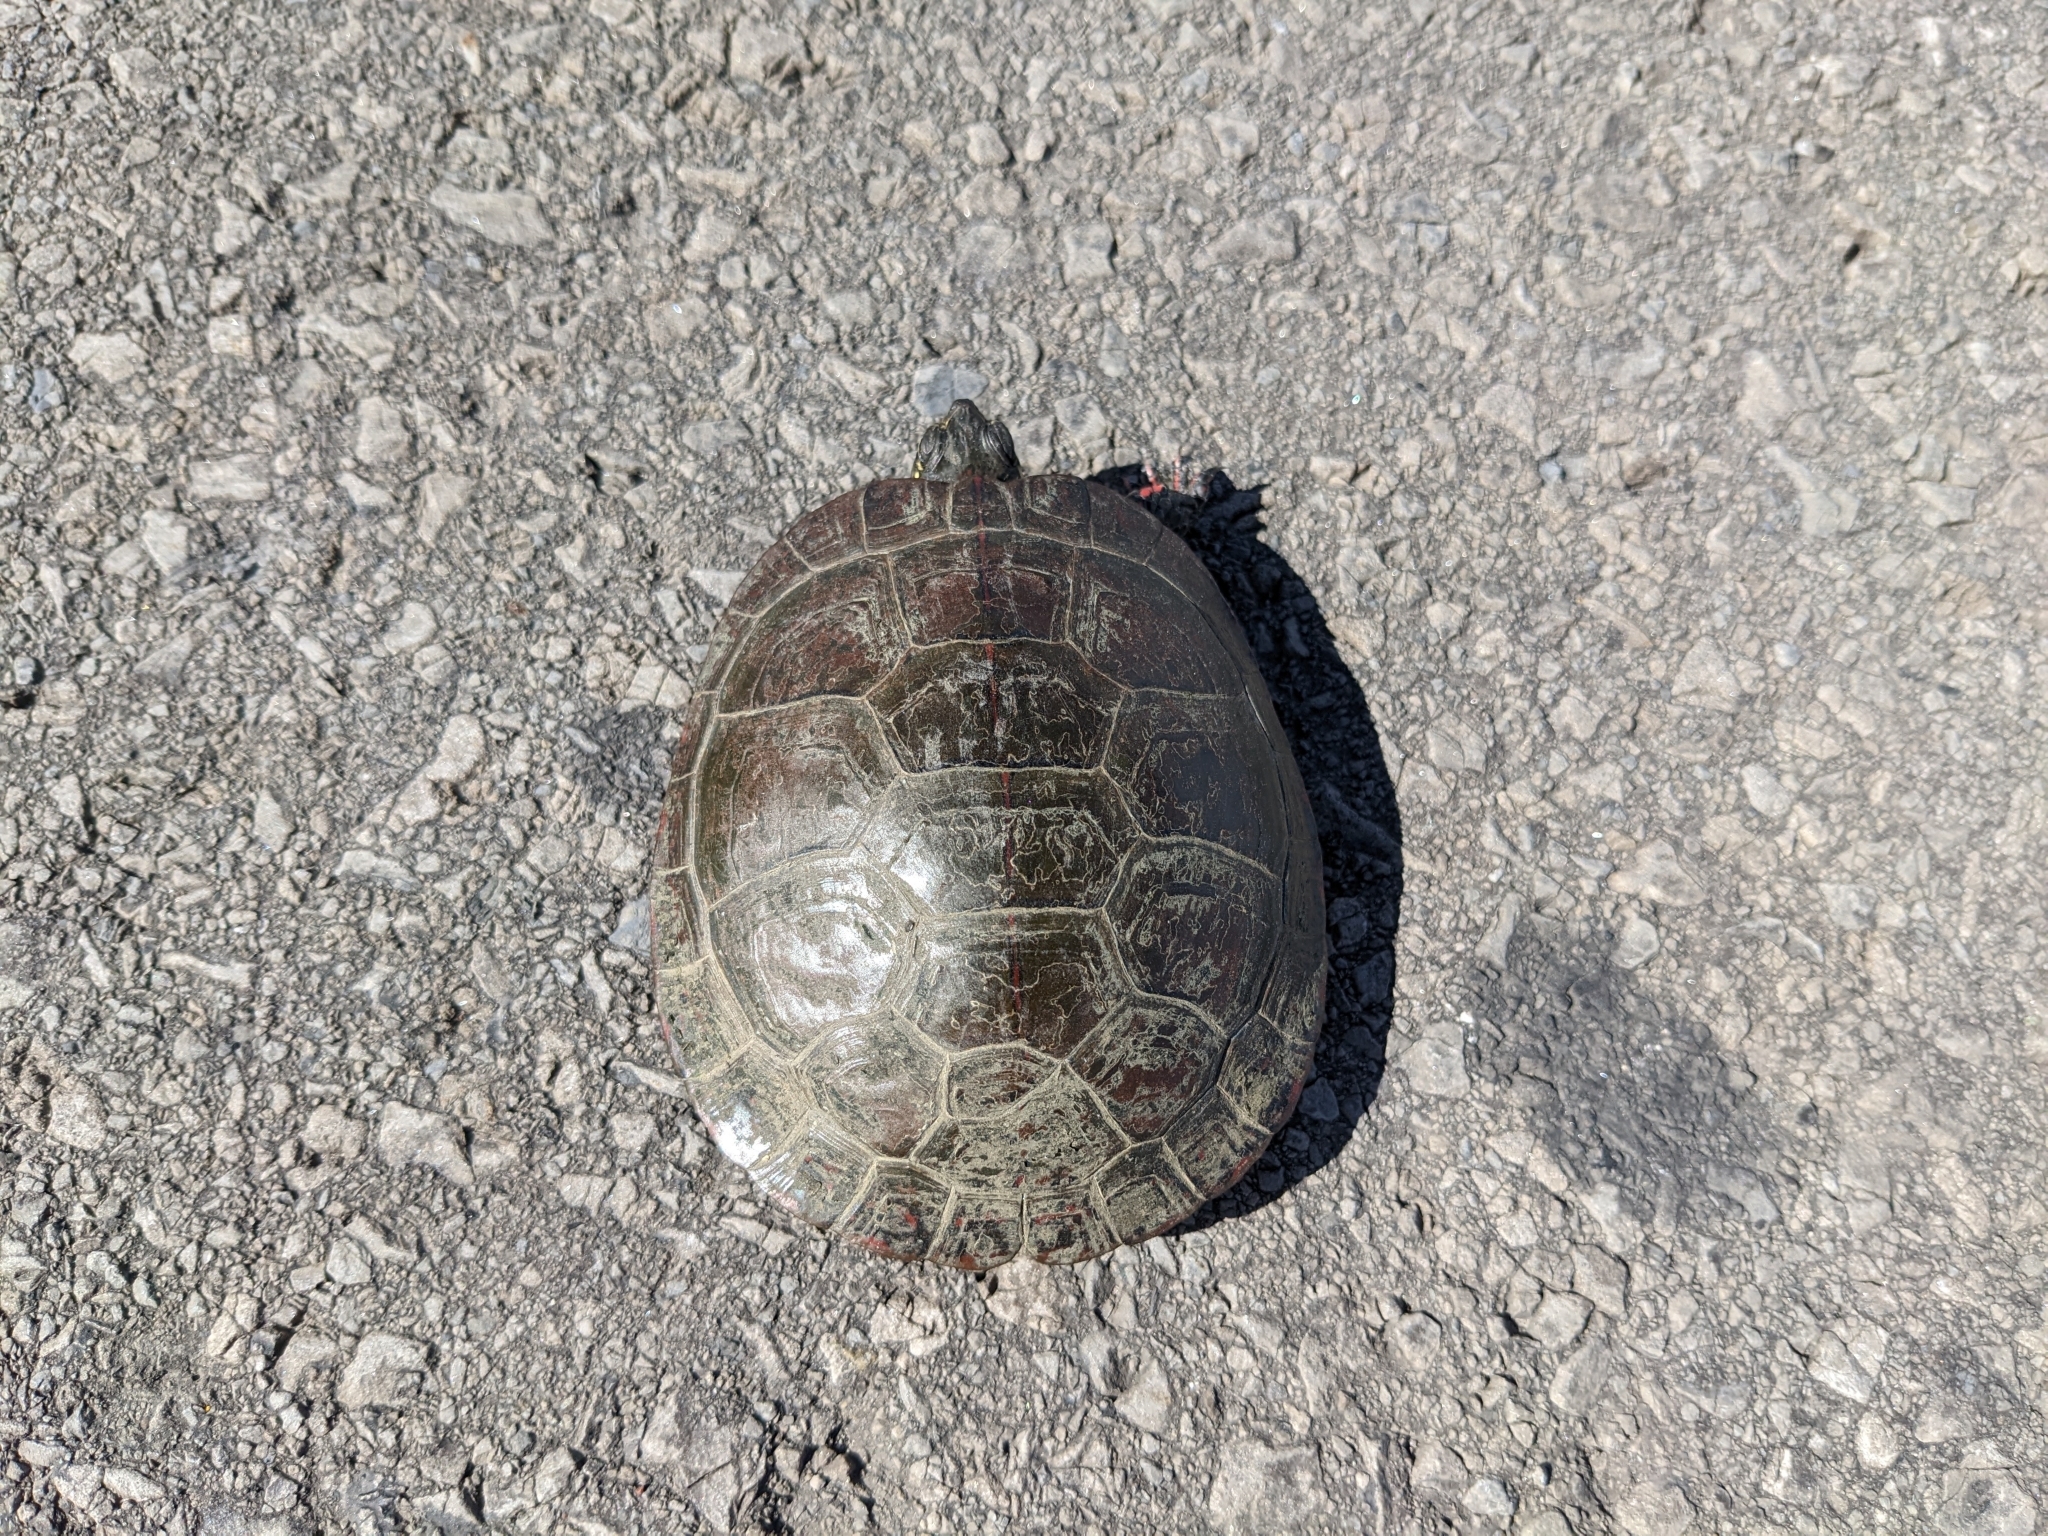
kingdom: Animalia
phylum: Chordata
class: Testudines
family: Emydidae
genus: Chrysemys
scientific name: Chrysemys picta
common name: Painted turtle
